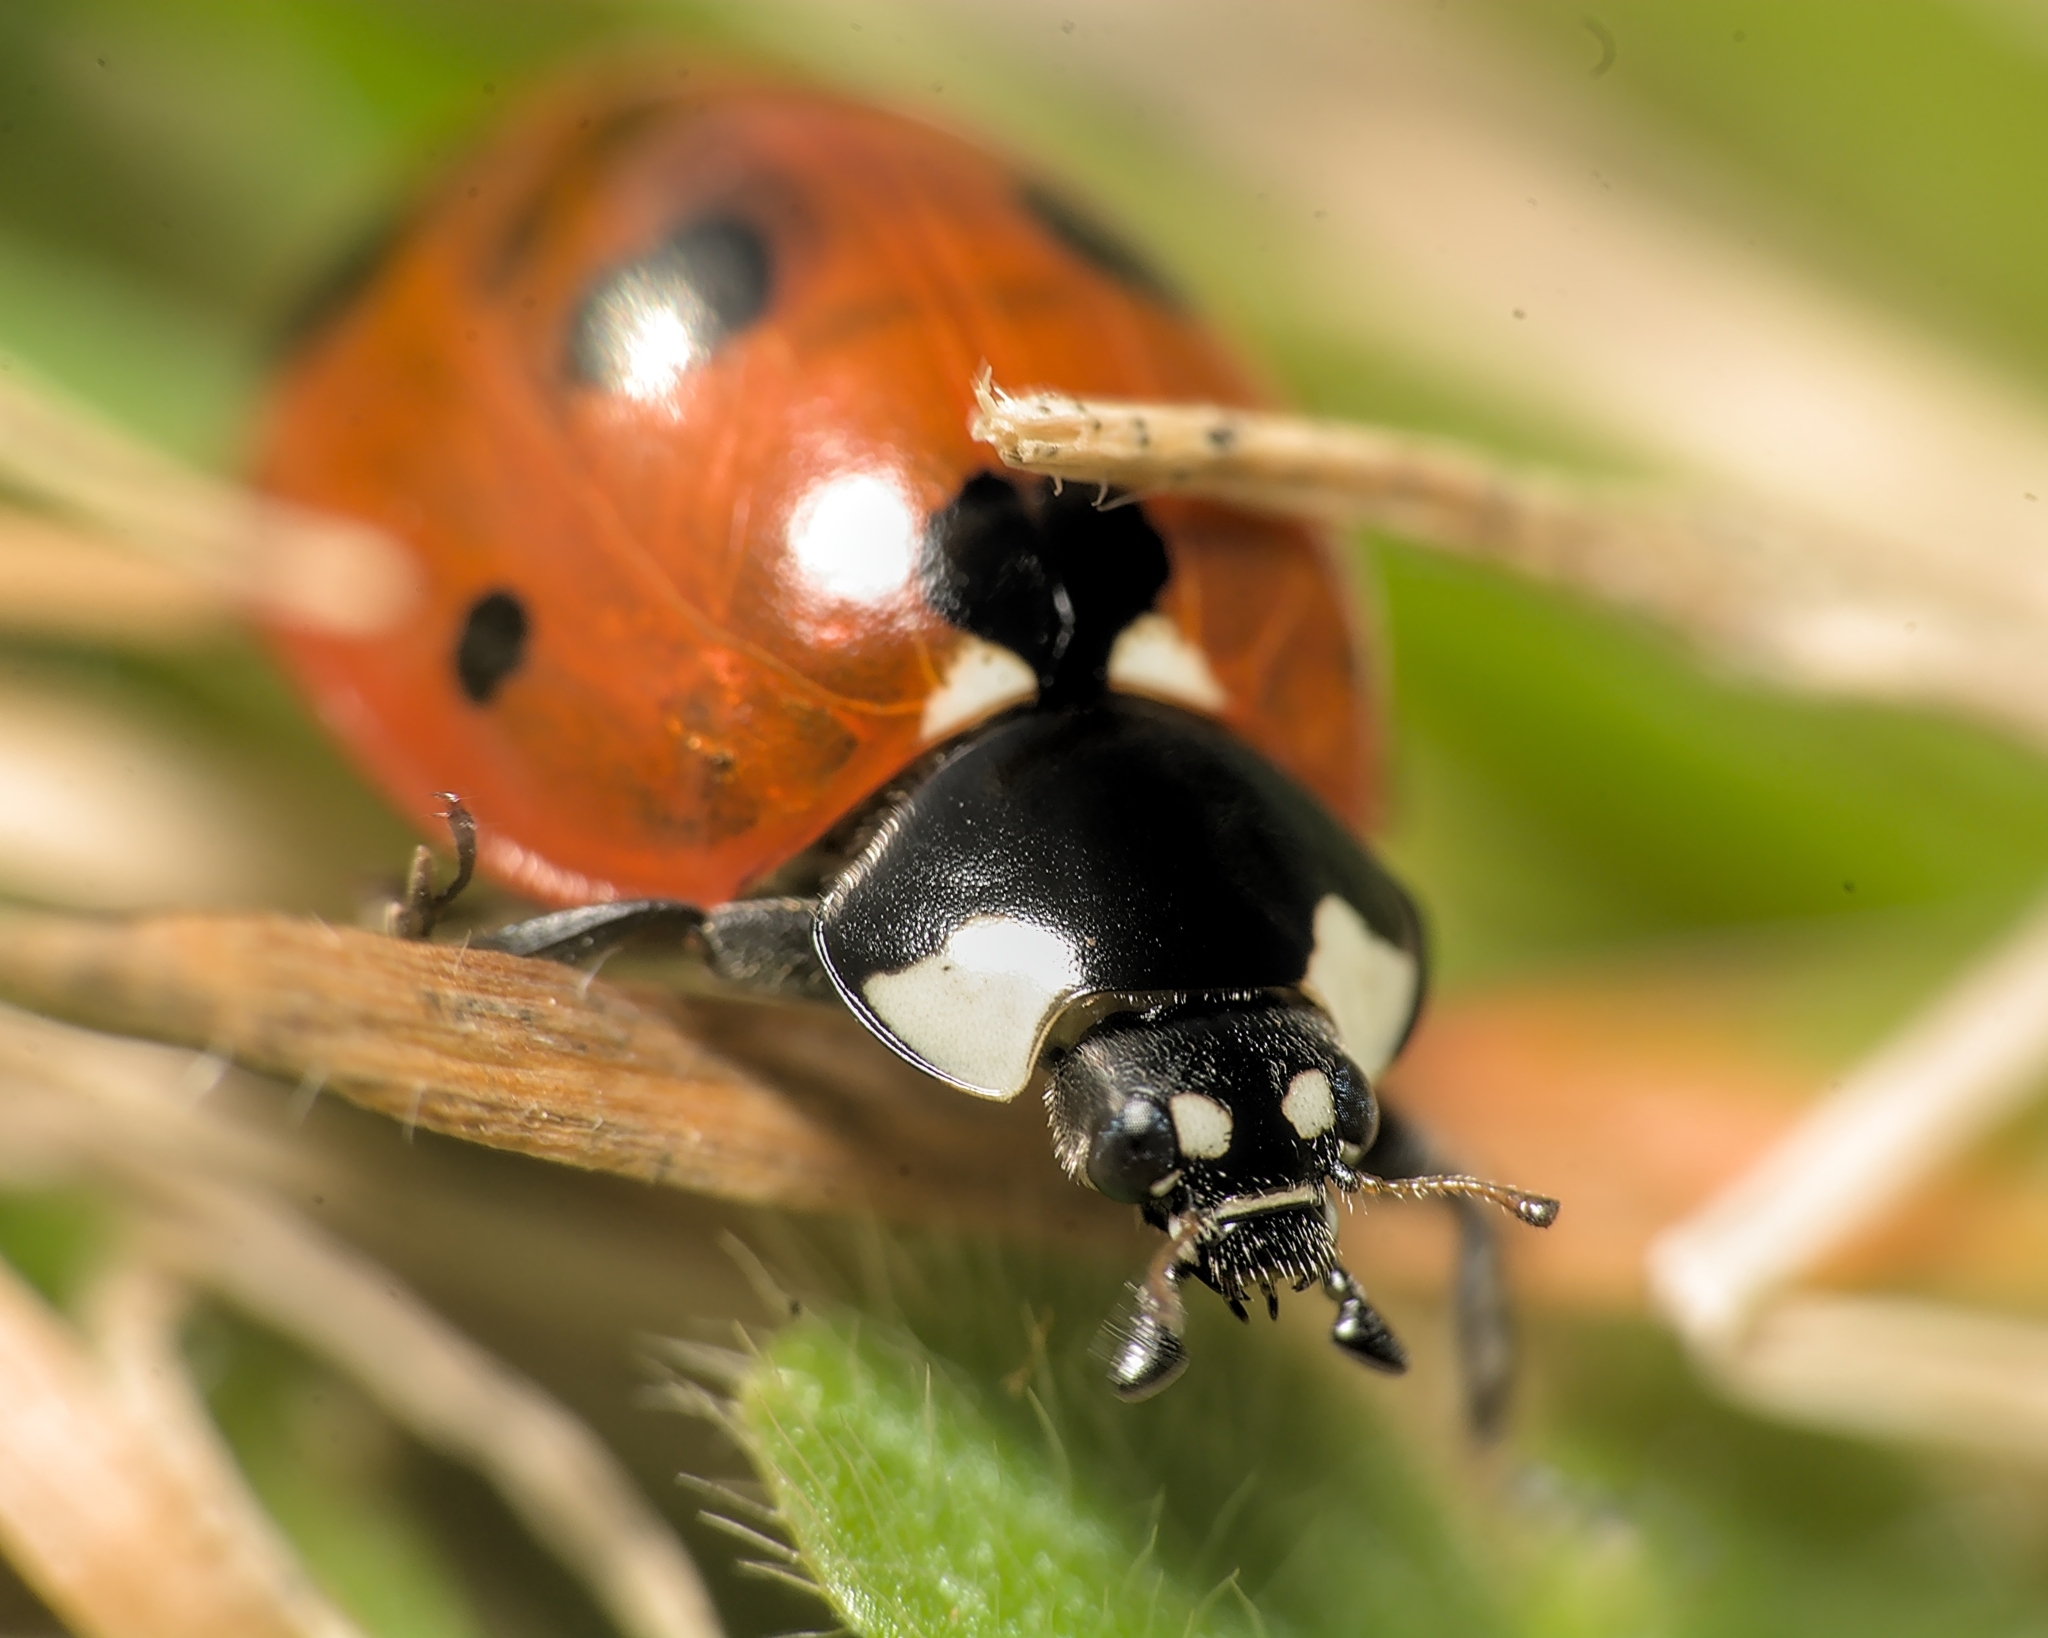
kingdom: Animalia
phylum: Arthropoda
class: Insecta
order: Coleoptera
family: Coccinellidae
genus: Coccinella
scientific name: Coccinella septempunctata
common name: Sevenspotted lady beetle
